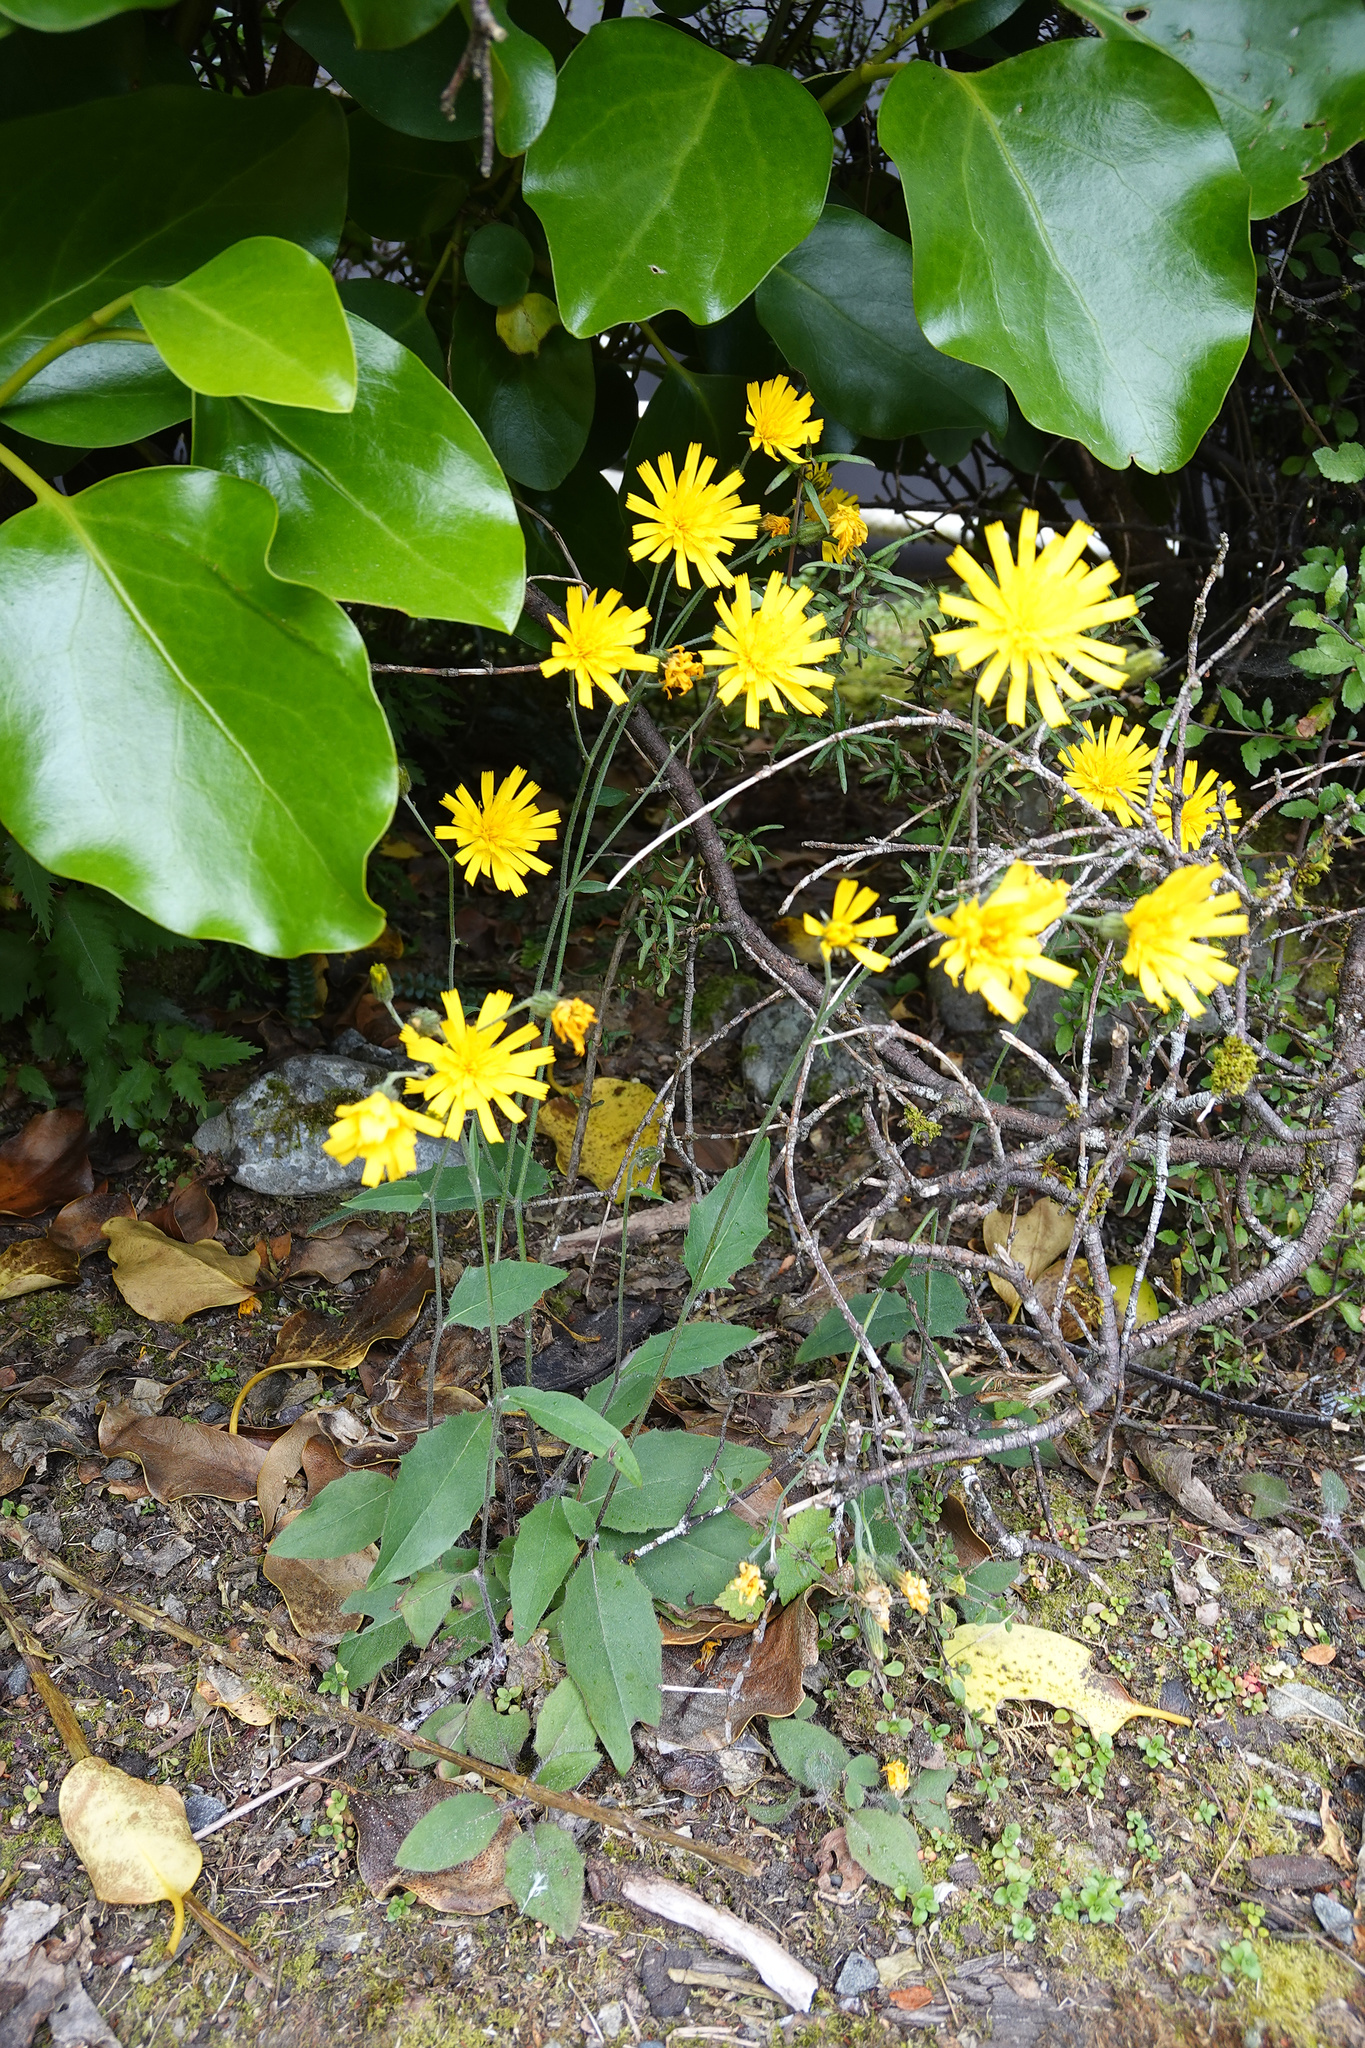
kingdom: Plantae
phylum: Tracheophyta
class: Magnoliopsida
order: Asterales
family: Asteraceae
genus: Hieracium
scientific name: Hieracium lepidulum
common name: Irregular-toothed hawkweed
